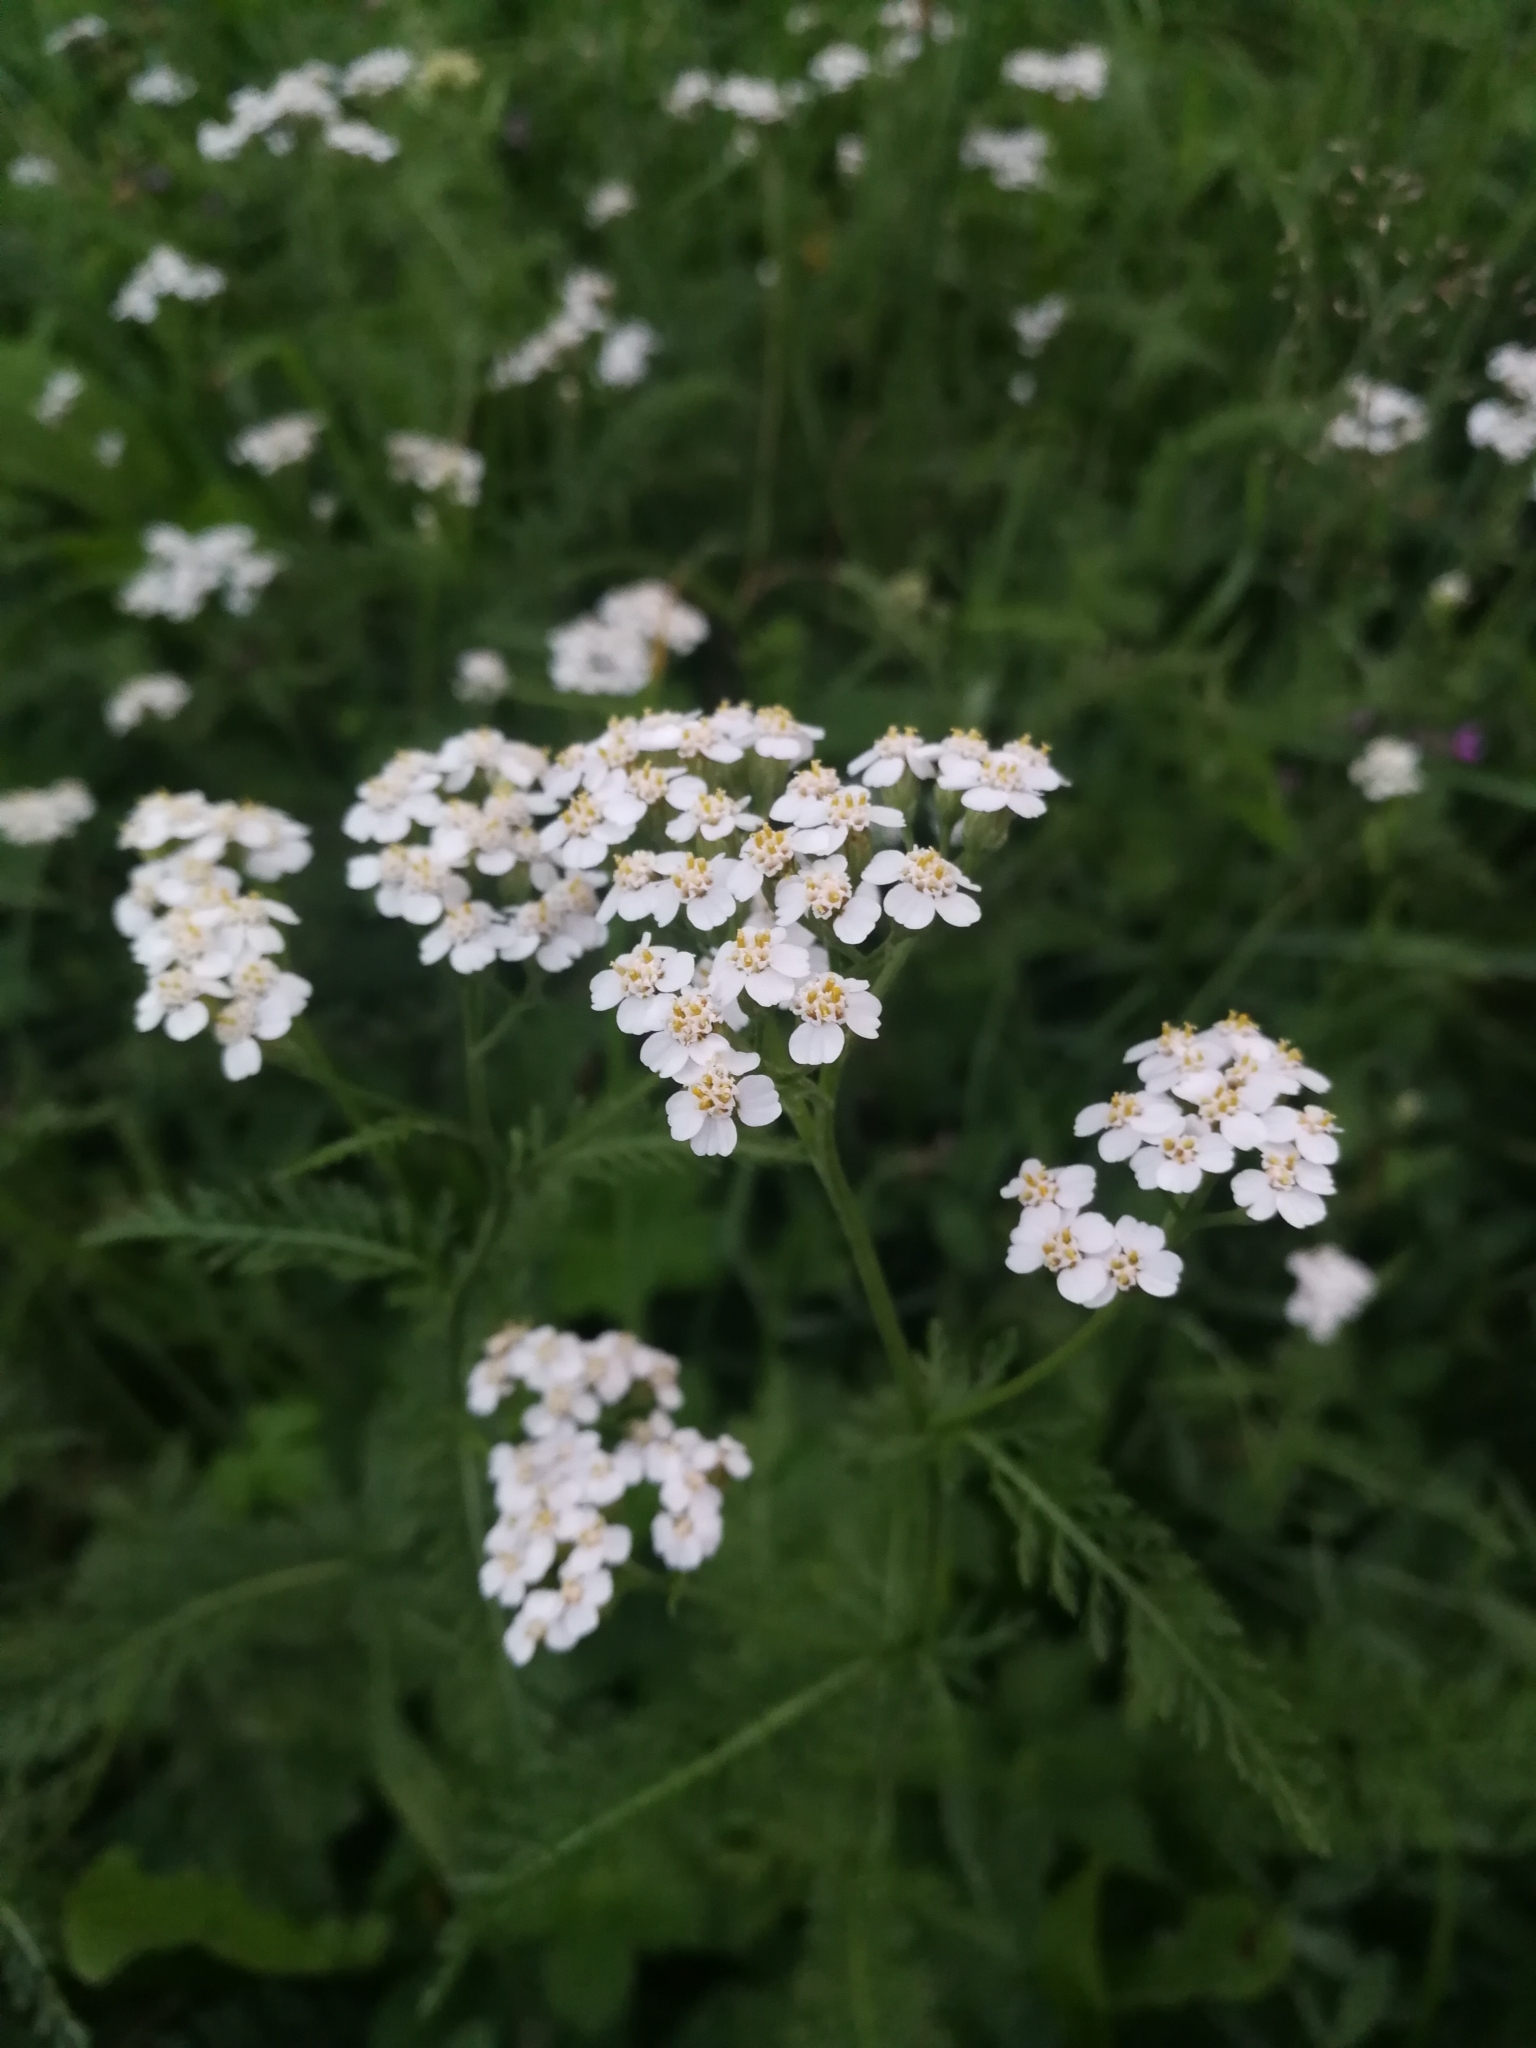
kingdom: Plantae
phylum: Tracheophyta
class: Magnoliopsida
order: Asterales
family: Asteraceae
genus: Achillea
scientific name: Achillea millefolium
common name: Yarrow
